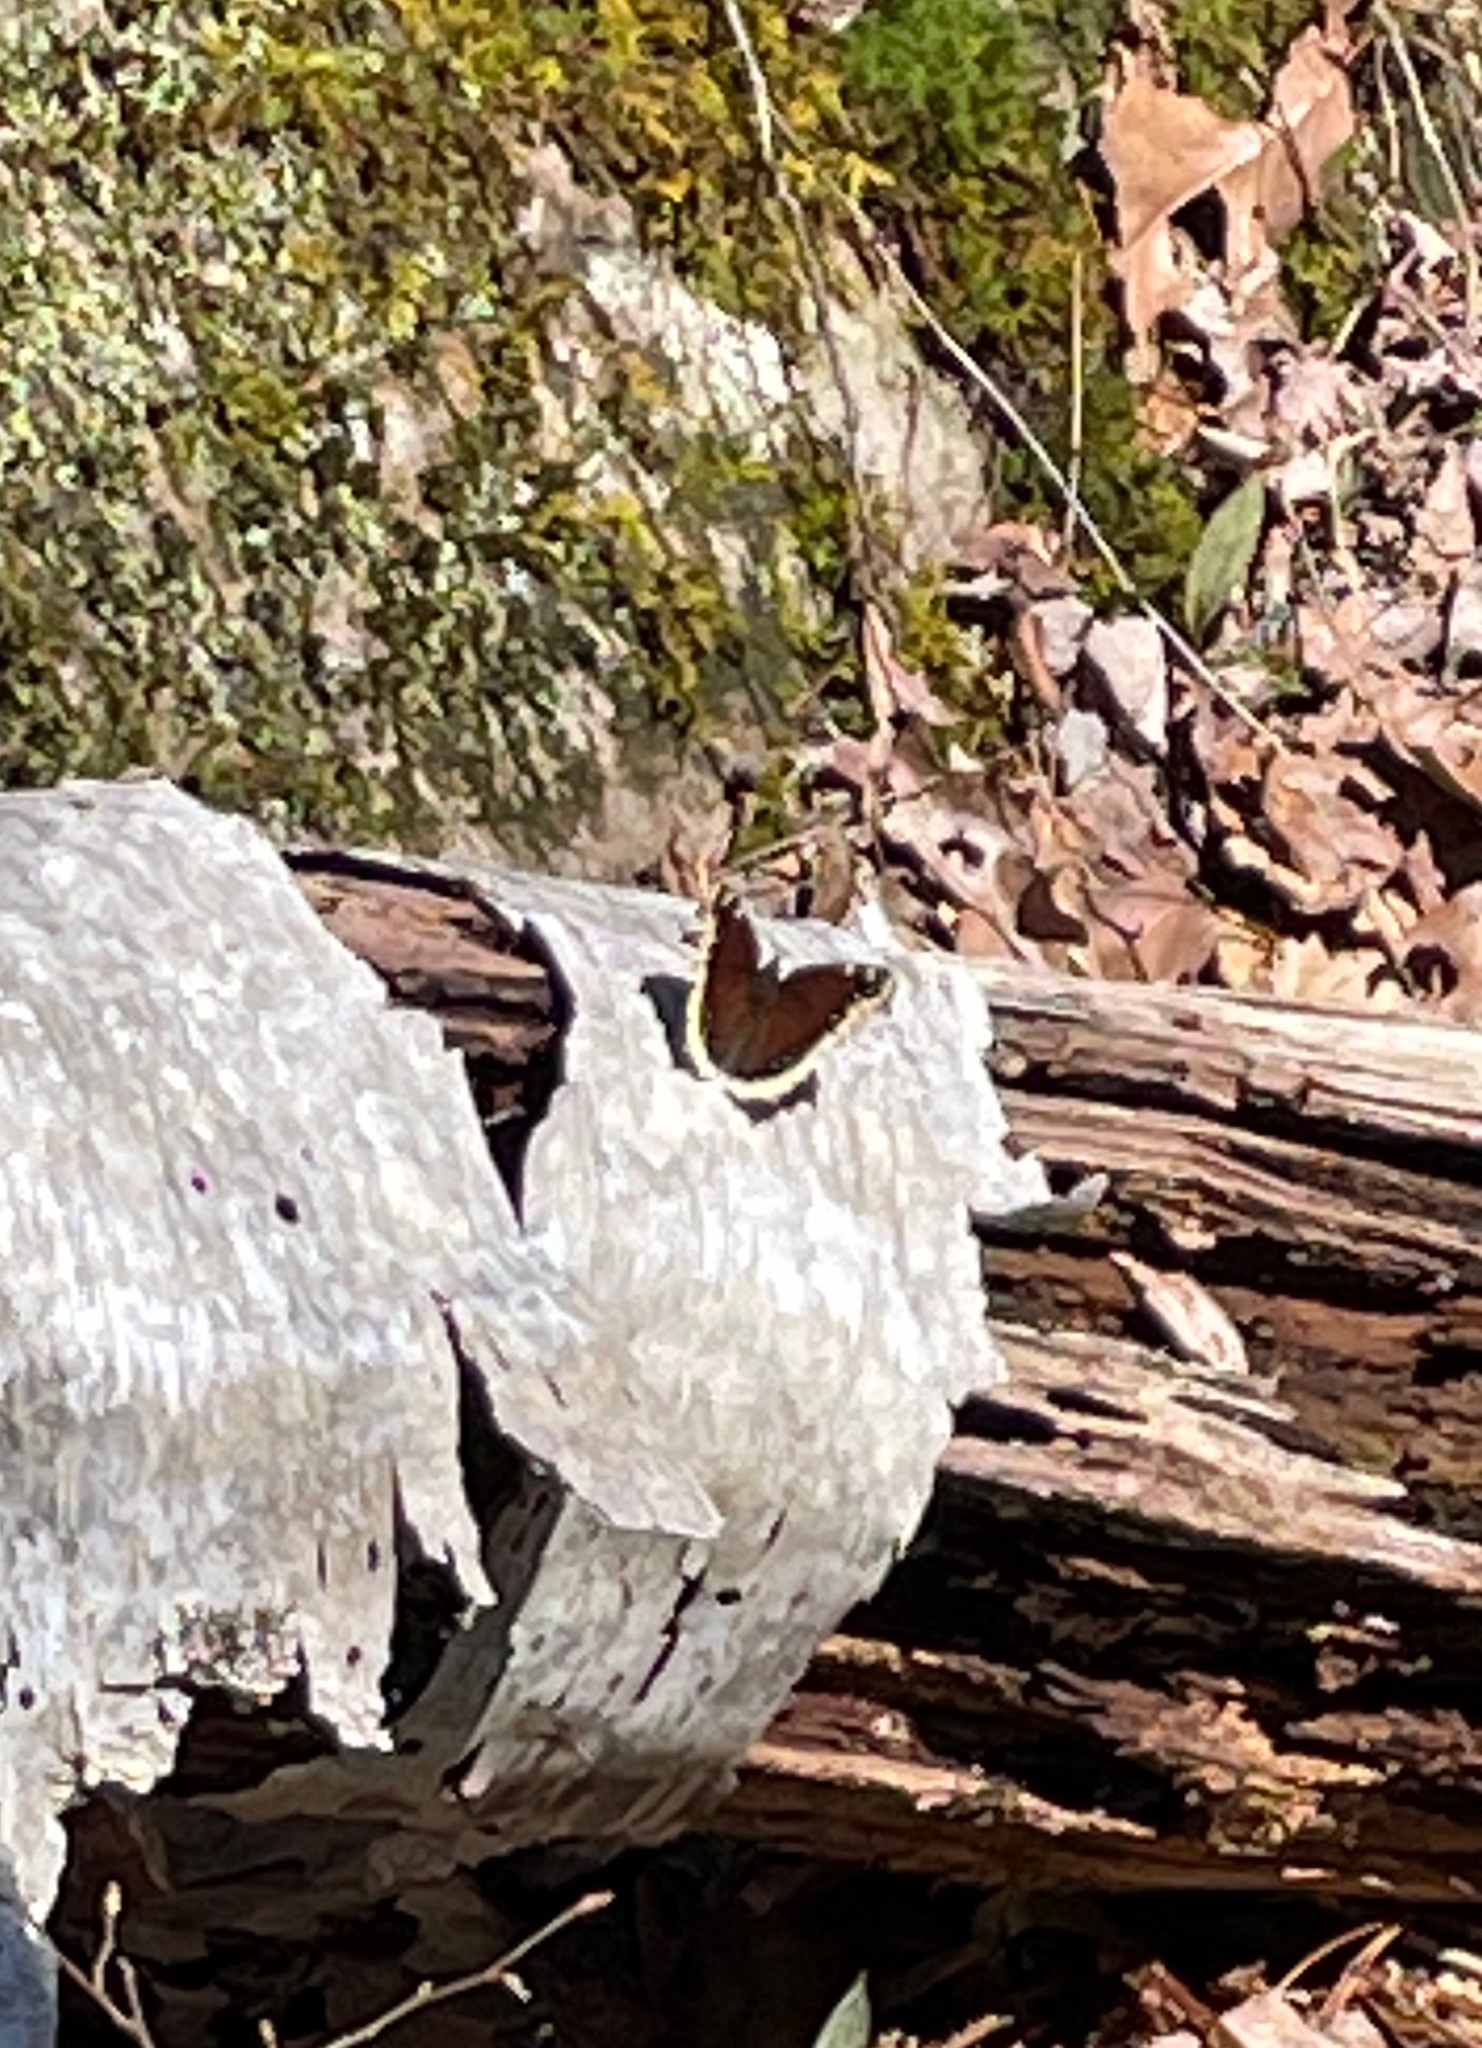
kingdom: Animalia
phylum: Arthropoda
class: Insecta
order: Lepidoptera
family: Nymphalidae
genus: Nymphalis
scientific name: Nymphalis antiopa
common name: Camberwell beauty
